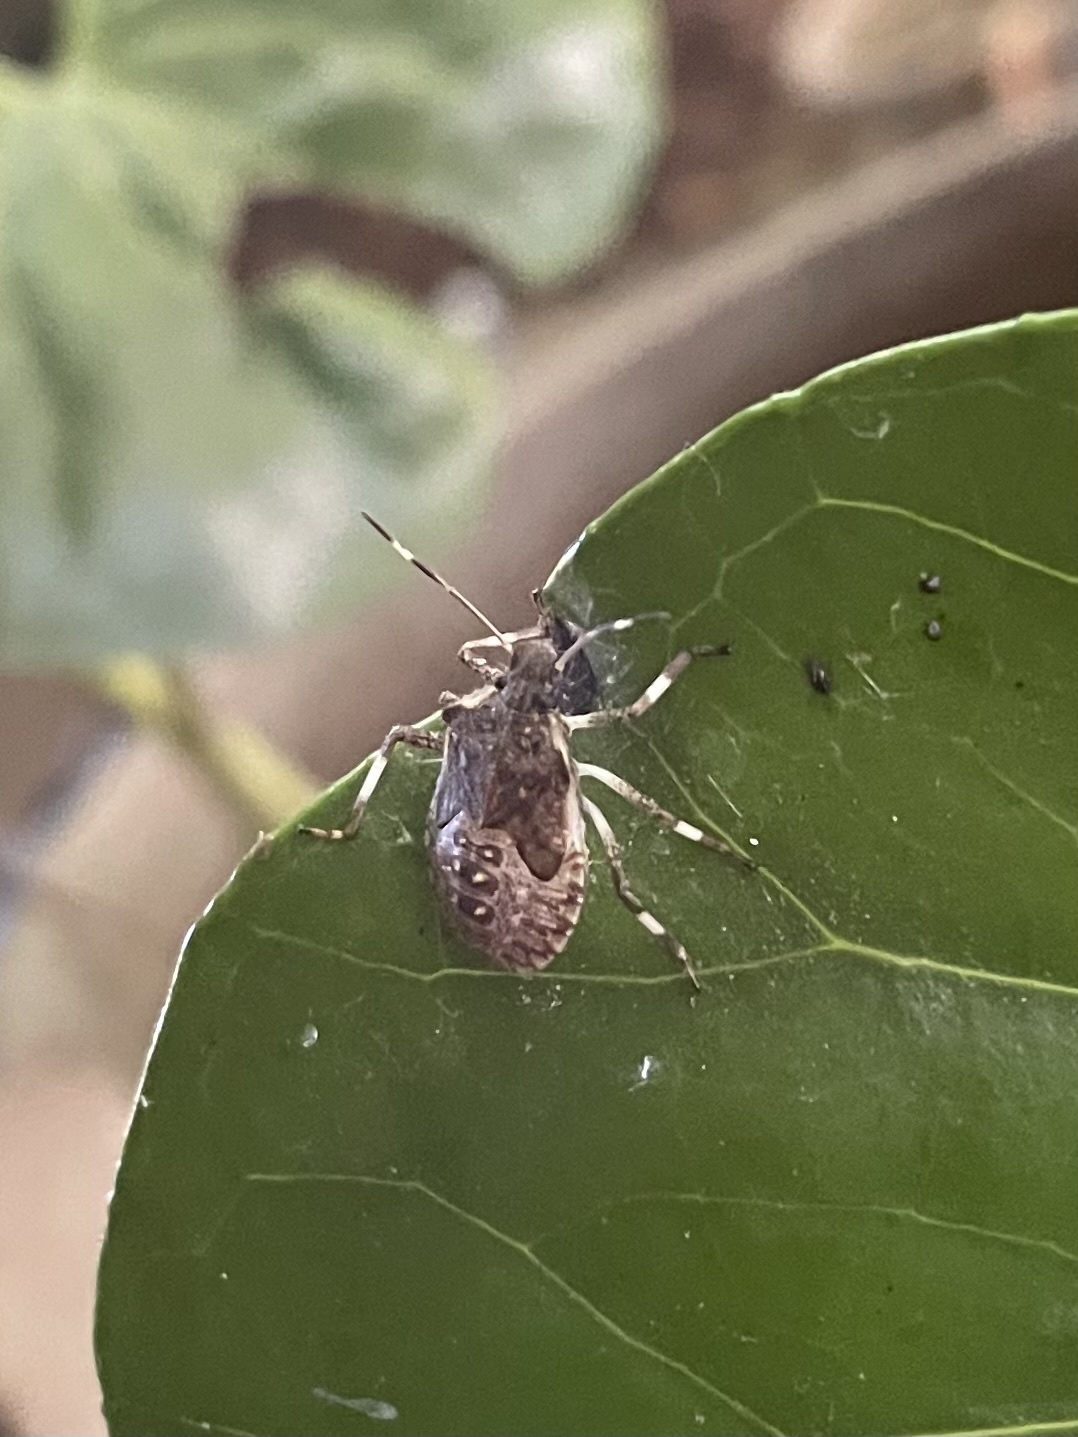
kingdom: Animalia
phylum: Arthropoda
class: Insecta
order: Hemiptera
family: Pentatomidae
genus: Halyomorpha
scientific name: Halyomorpha halys
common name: Brown marmorated stink bug
